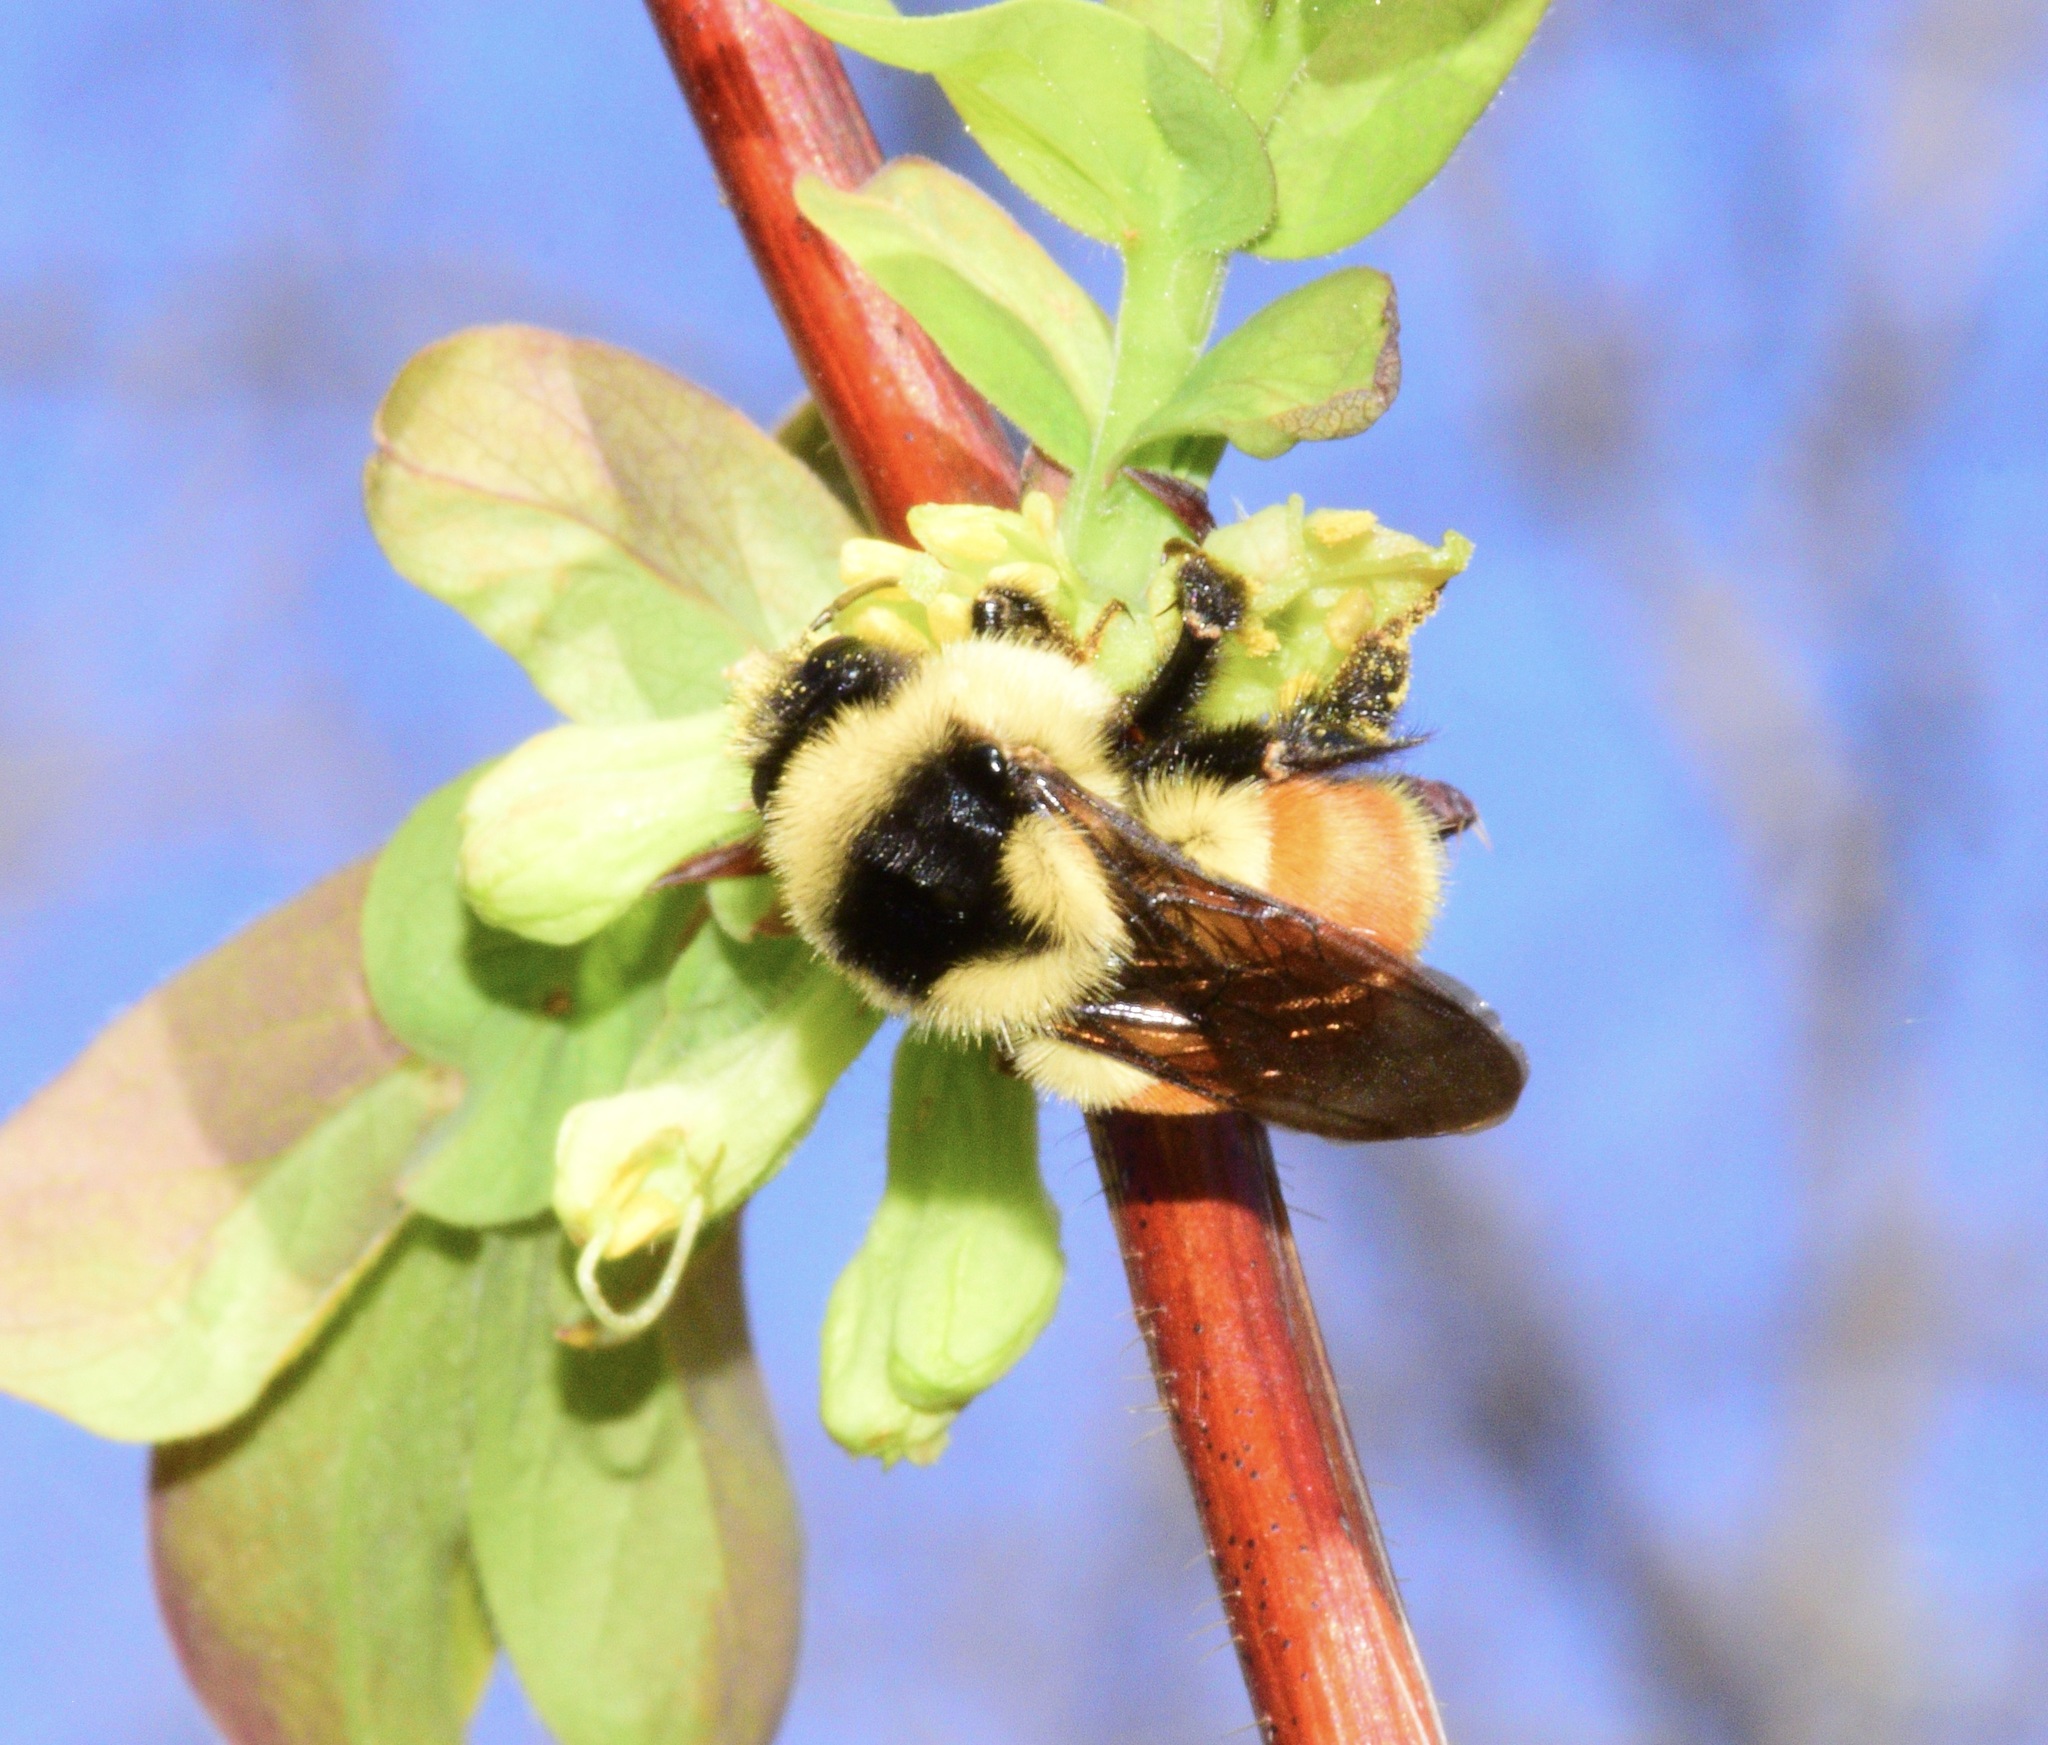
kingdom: Animalia
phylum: Arthropoda
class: Insecta
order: Hymenoptera
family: Apidae
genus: Bombus
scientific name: Bombus ternarius
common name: Tri-colored bumble bee
